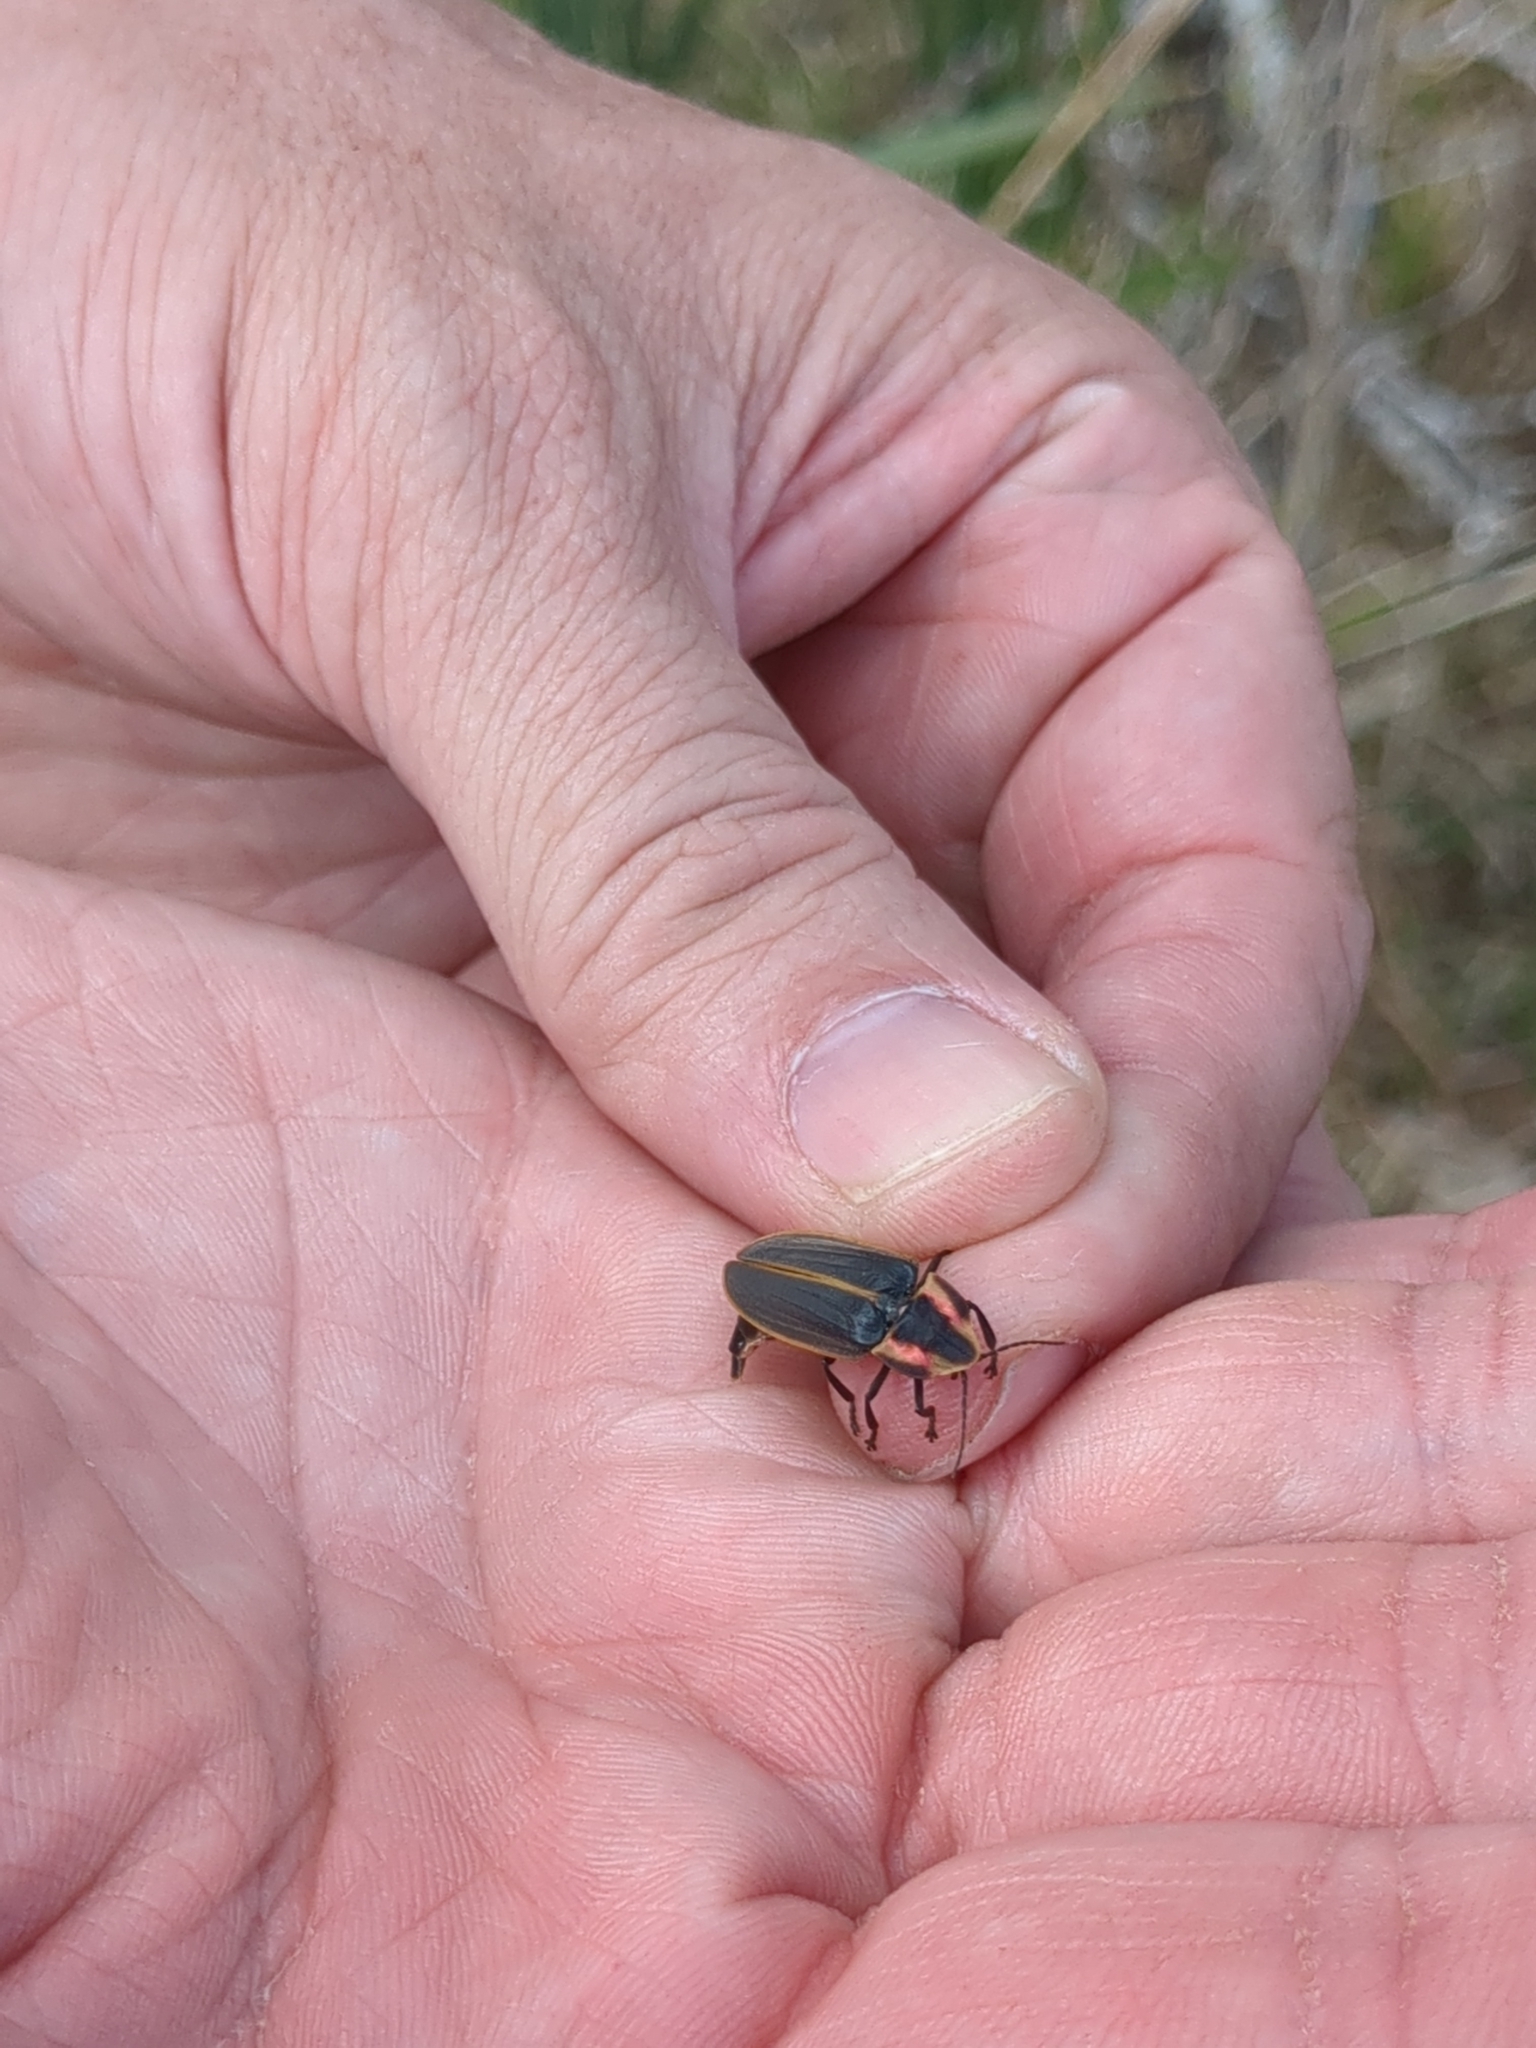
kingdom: Animalia
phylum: Arthropoda
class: Insecta
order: Coleoptera
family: Lampyridae
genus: Pyractomena
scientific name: Pyractomena borealis
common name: Northern firefly
